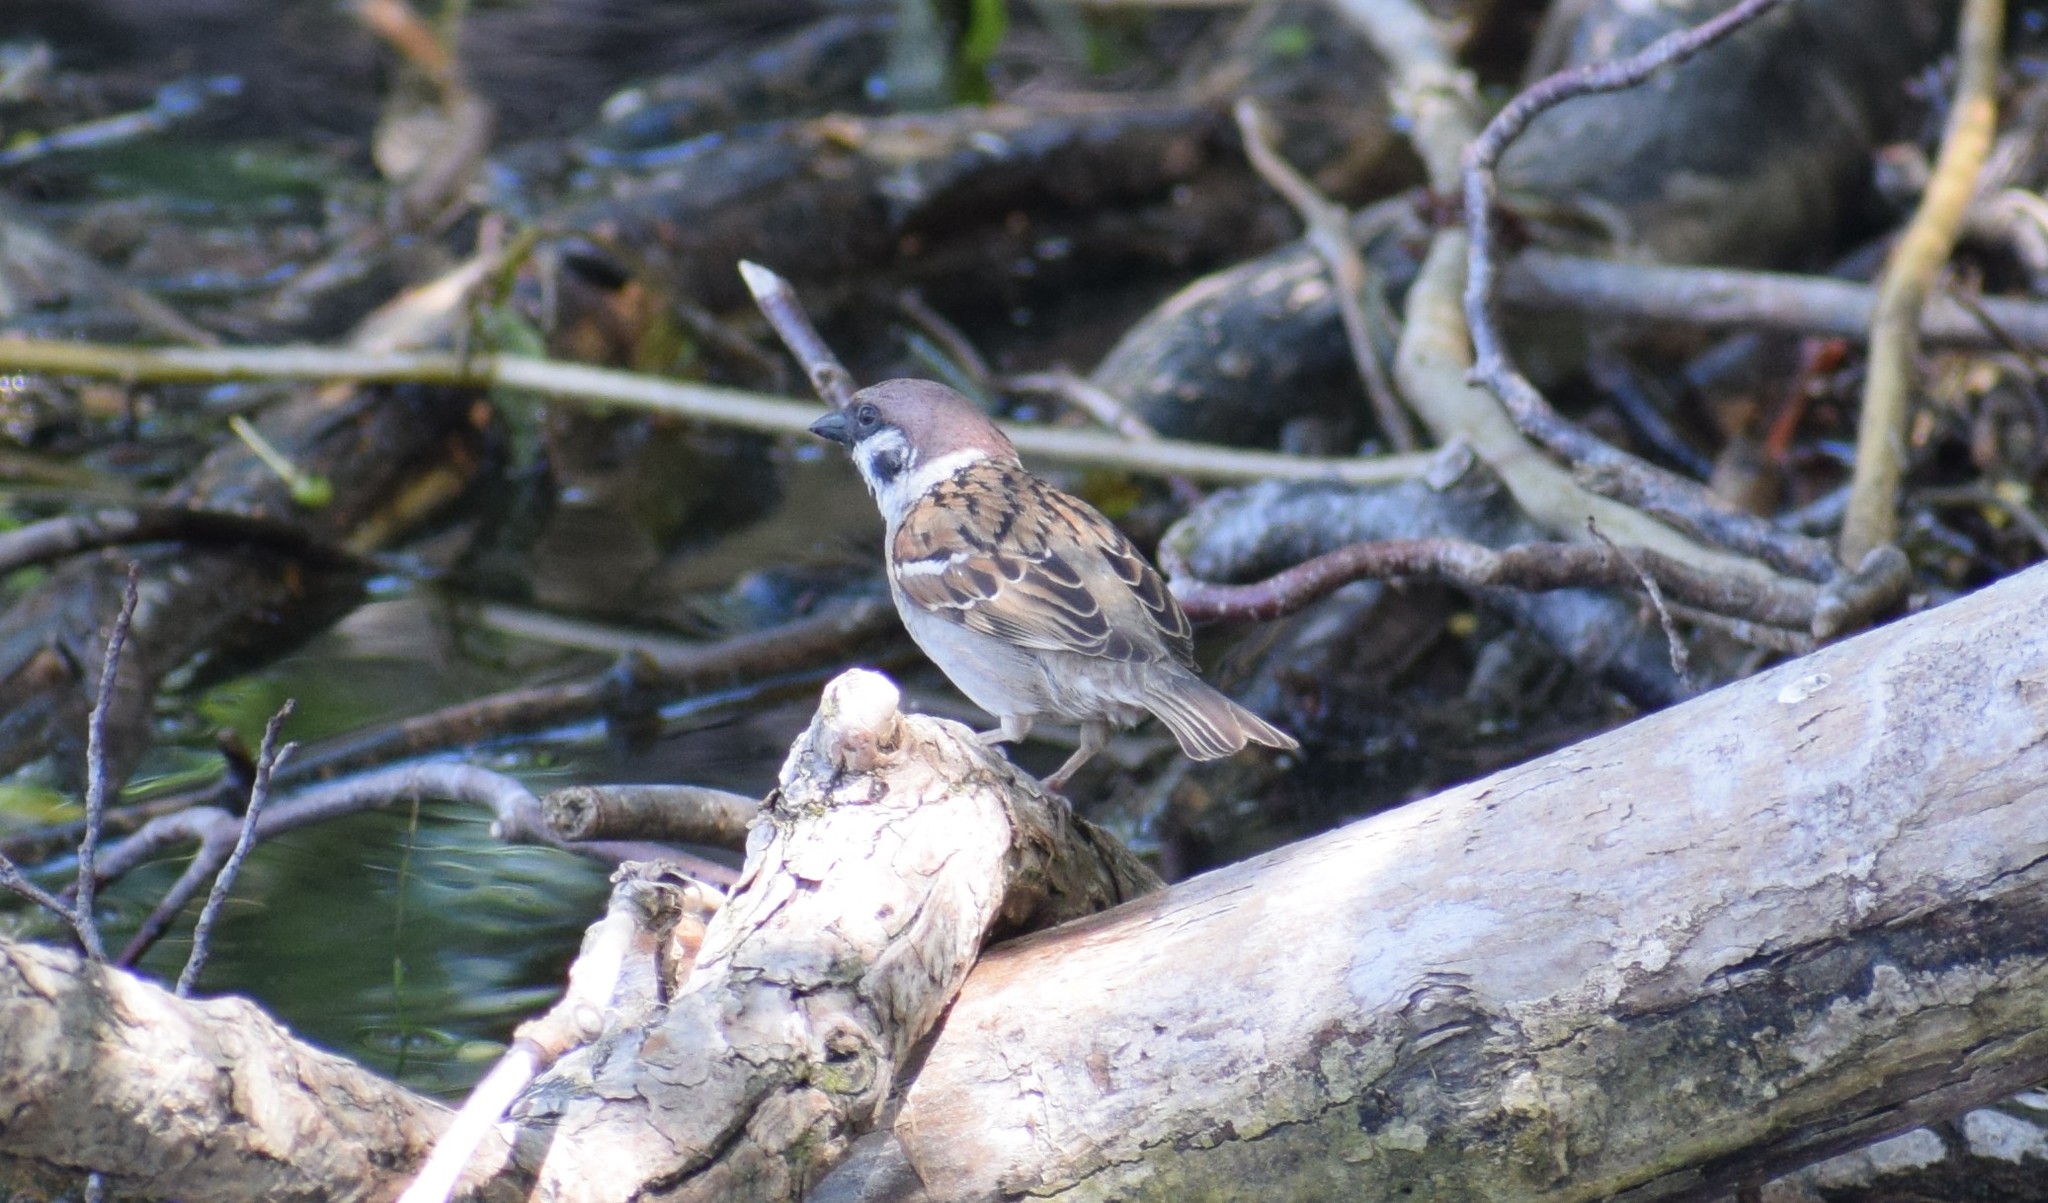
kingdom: Animalia
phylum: Chordata
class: Aves
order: Passeriformes
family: Passeridae
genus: Passer
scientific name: Passer montanus
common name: Eurasian tree sparrow
